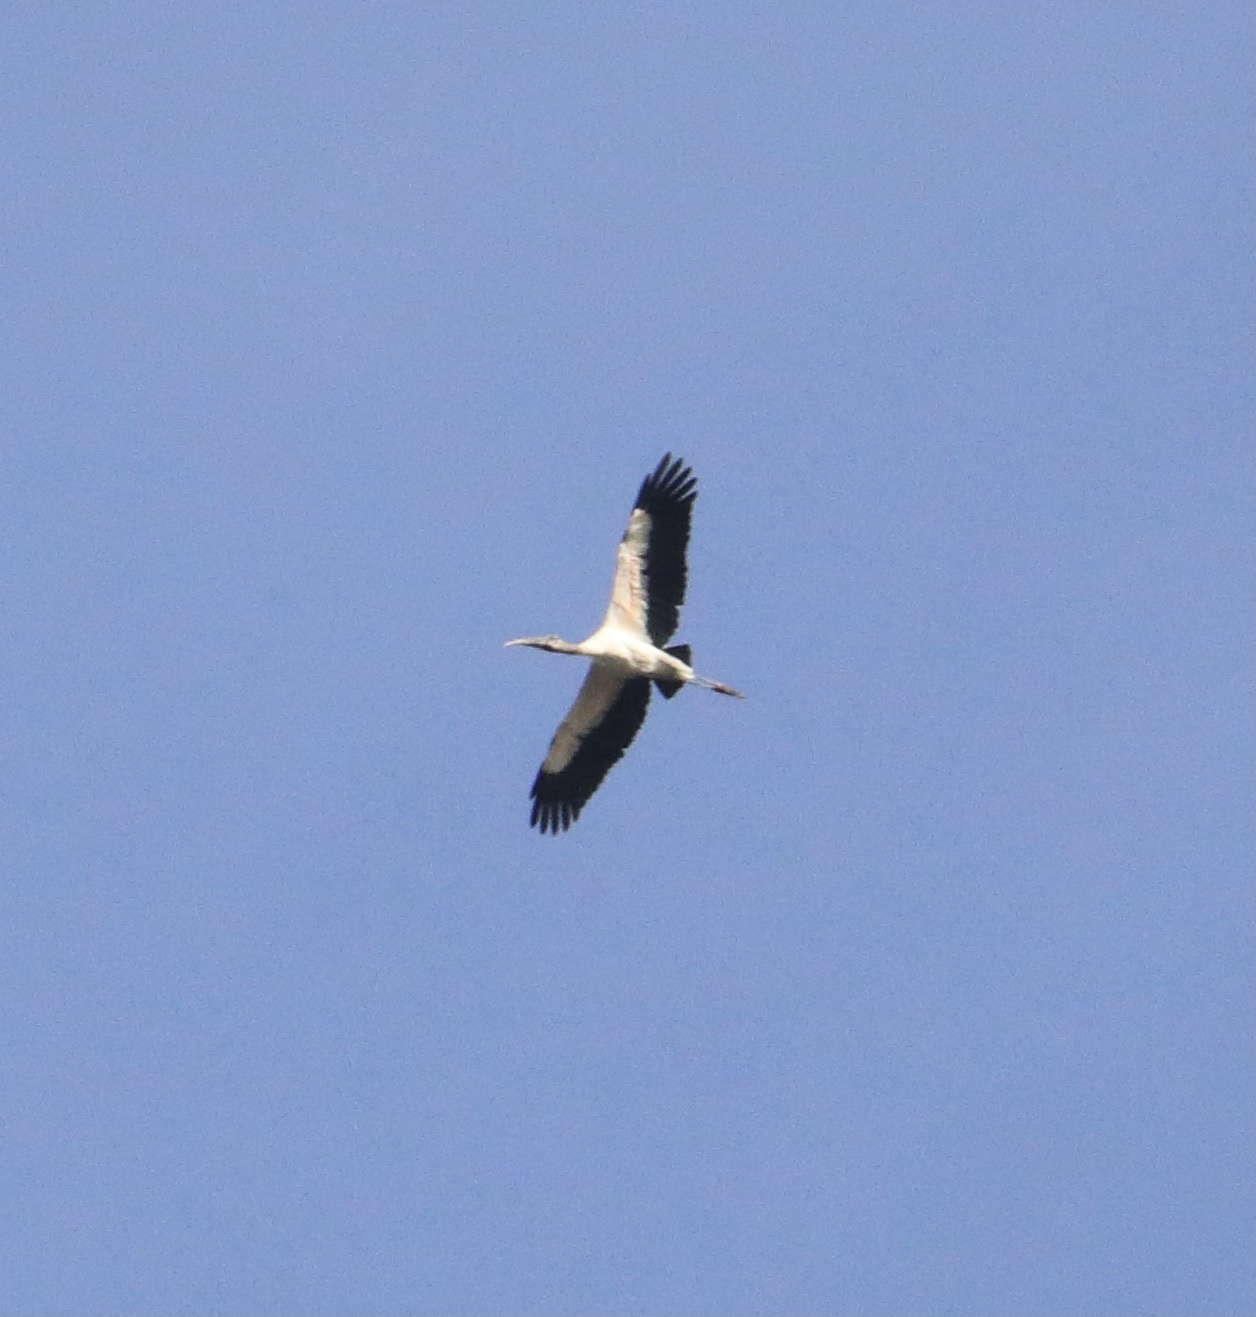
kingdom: Animalia
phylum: Chordata
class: Aves
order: Ciconiiformes
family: Ciconiidae
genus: Mycteria
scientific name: Mycteria americana
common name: Wood stork
